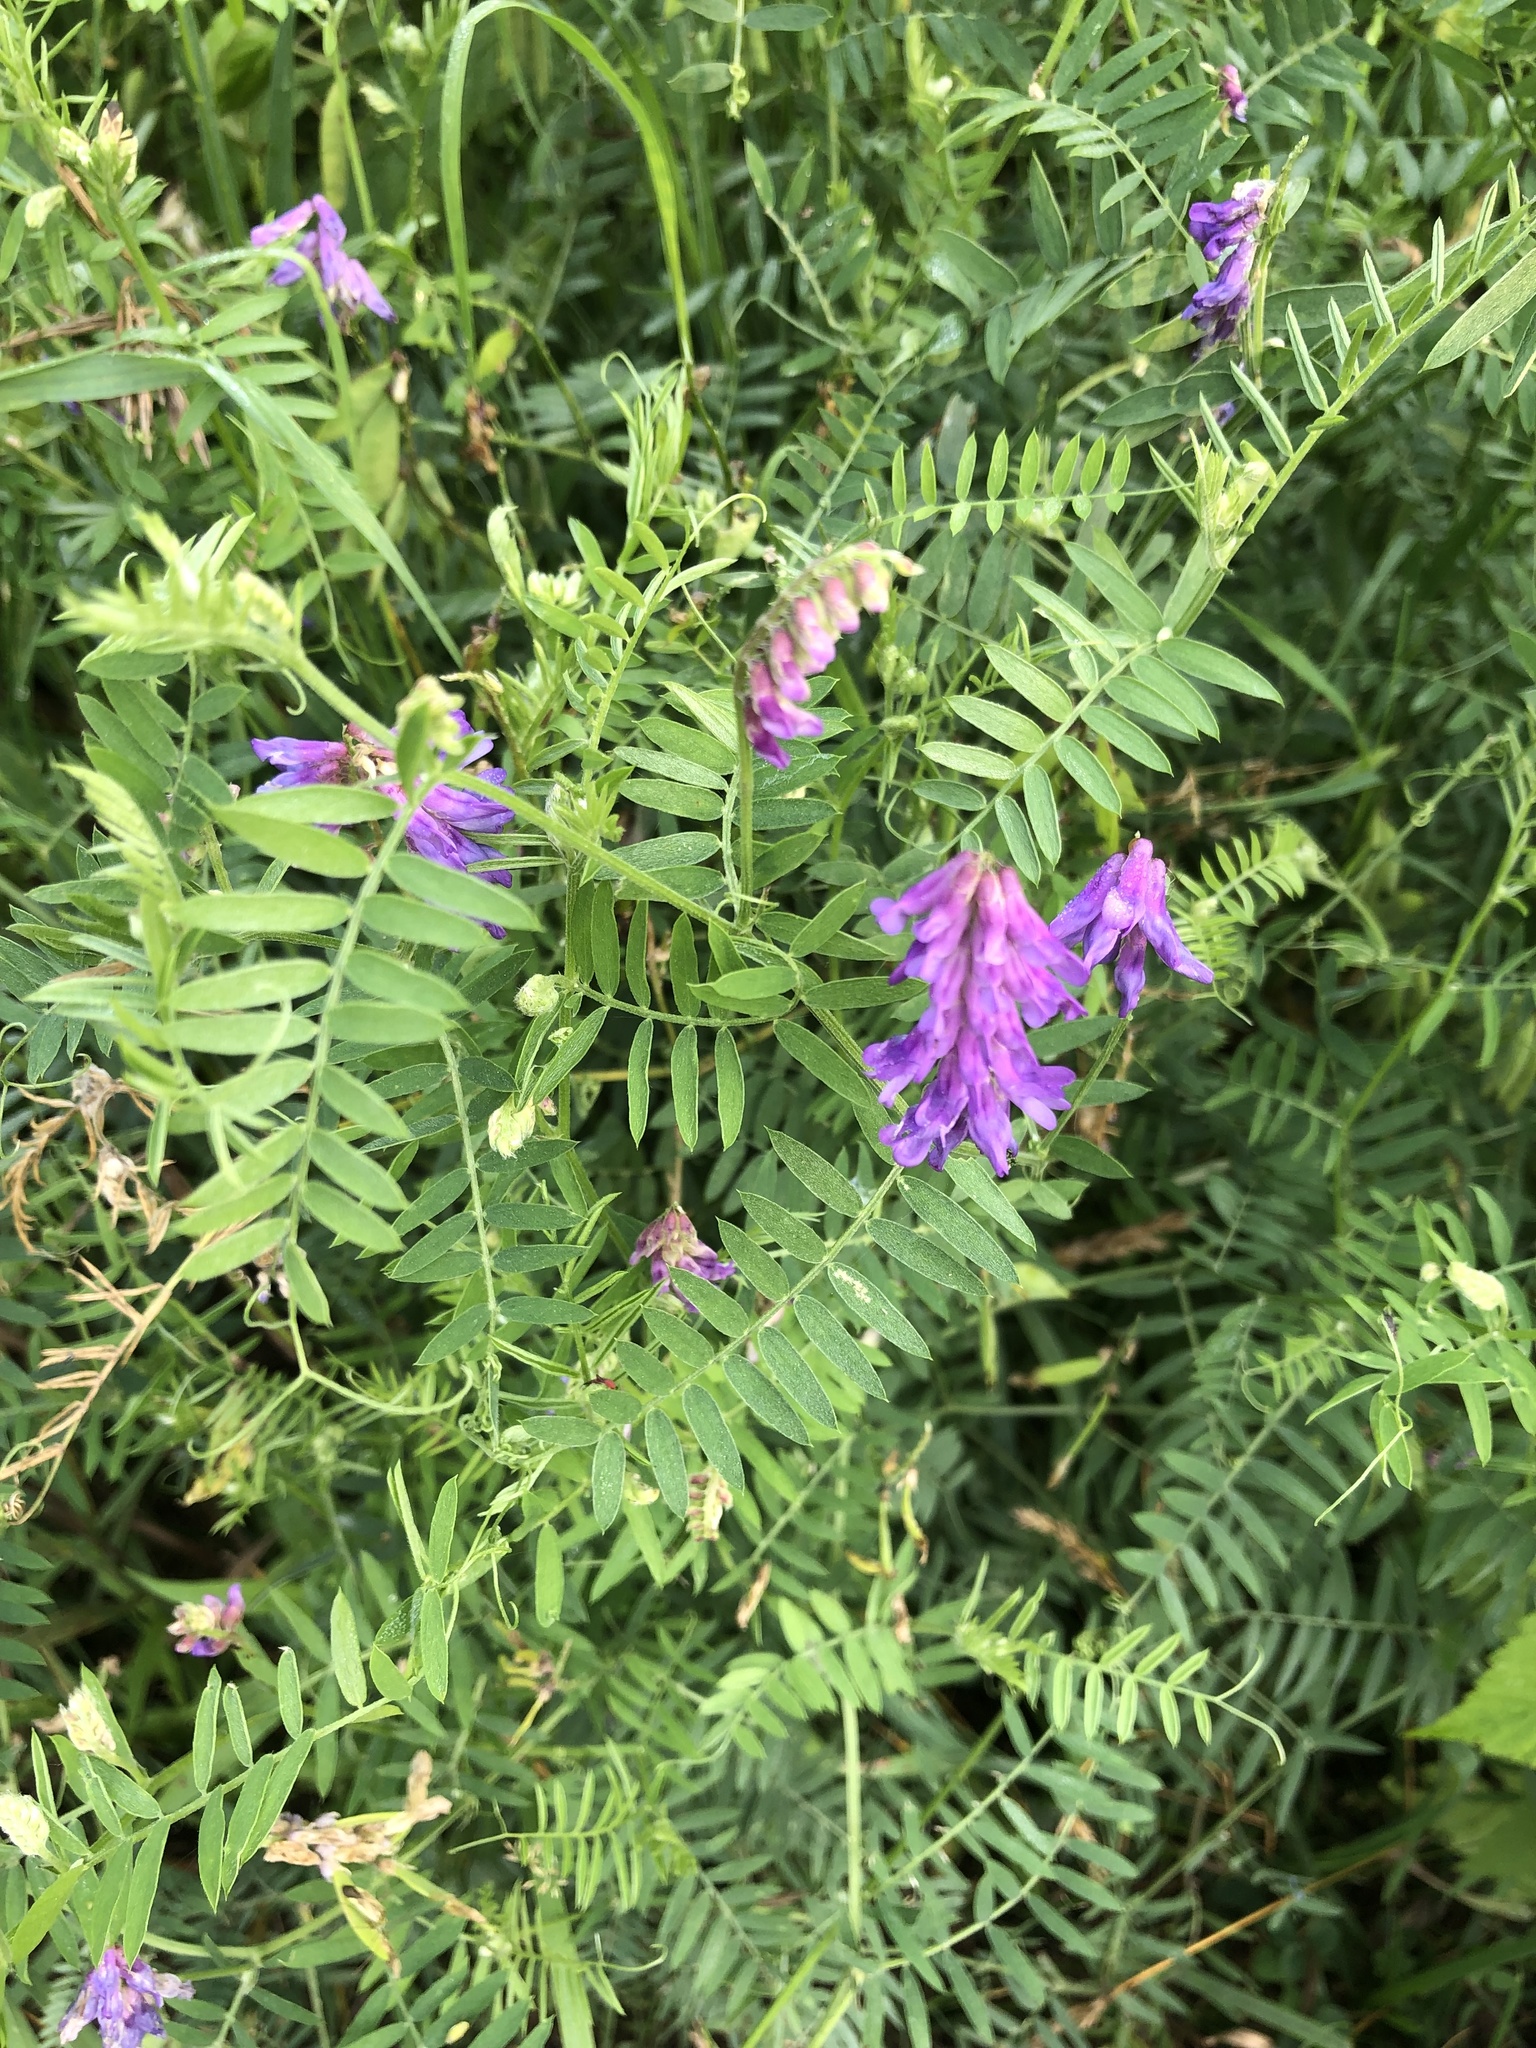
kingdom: Plantae
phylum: Tracheophyta
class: Magnoliopsida
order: Fabales
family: Fabaceae
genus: Vicia
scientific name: Vicia cracca
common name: Bird vetch
